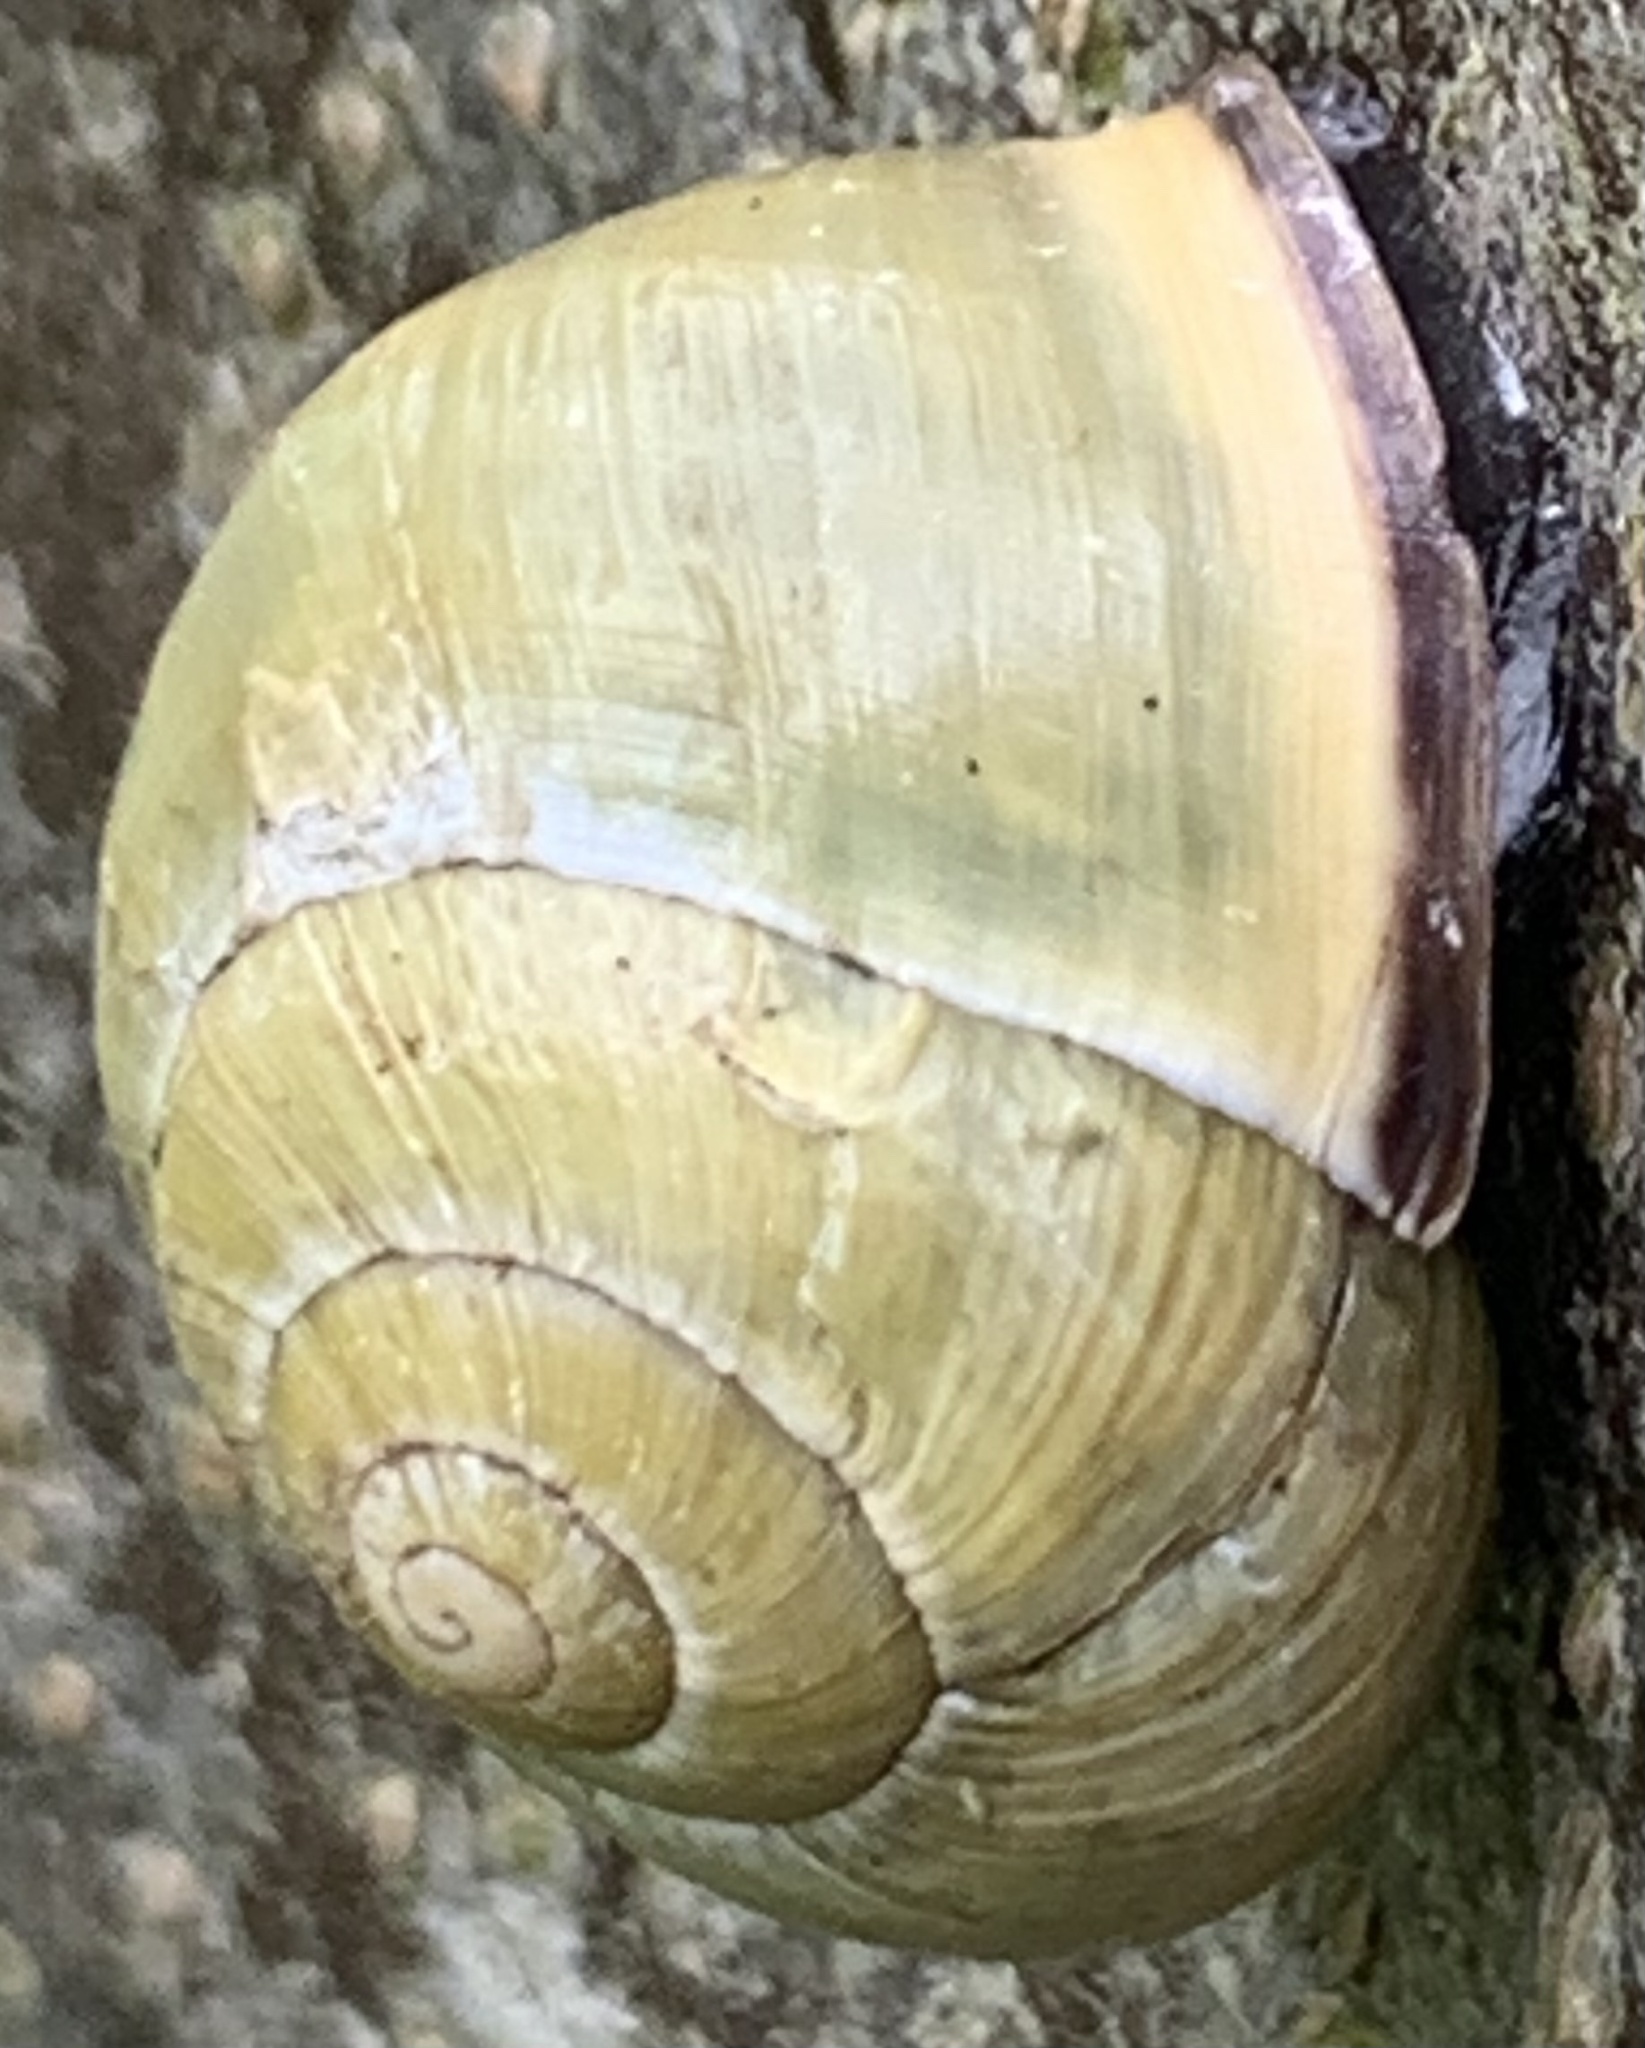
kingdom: Animalia
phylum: Mollusca
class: Gastropoda
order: Stylommatophora
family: Helicidae
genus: Cepaea
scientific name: Cepaea nemoralis
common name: Grovesnail
